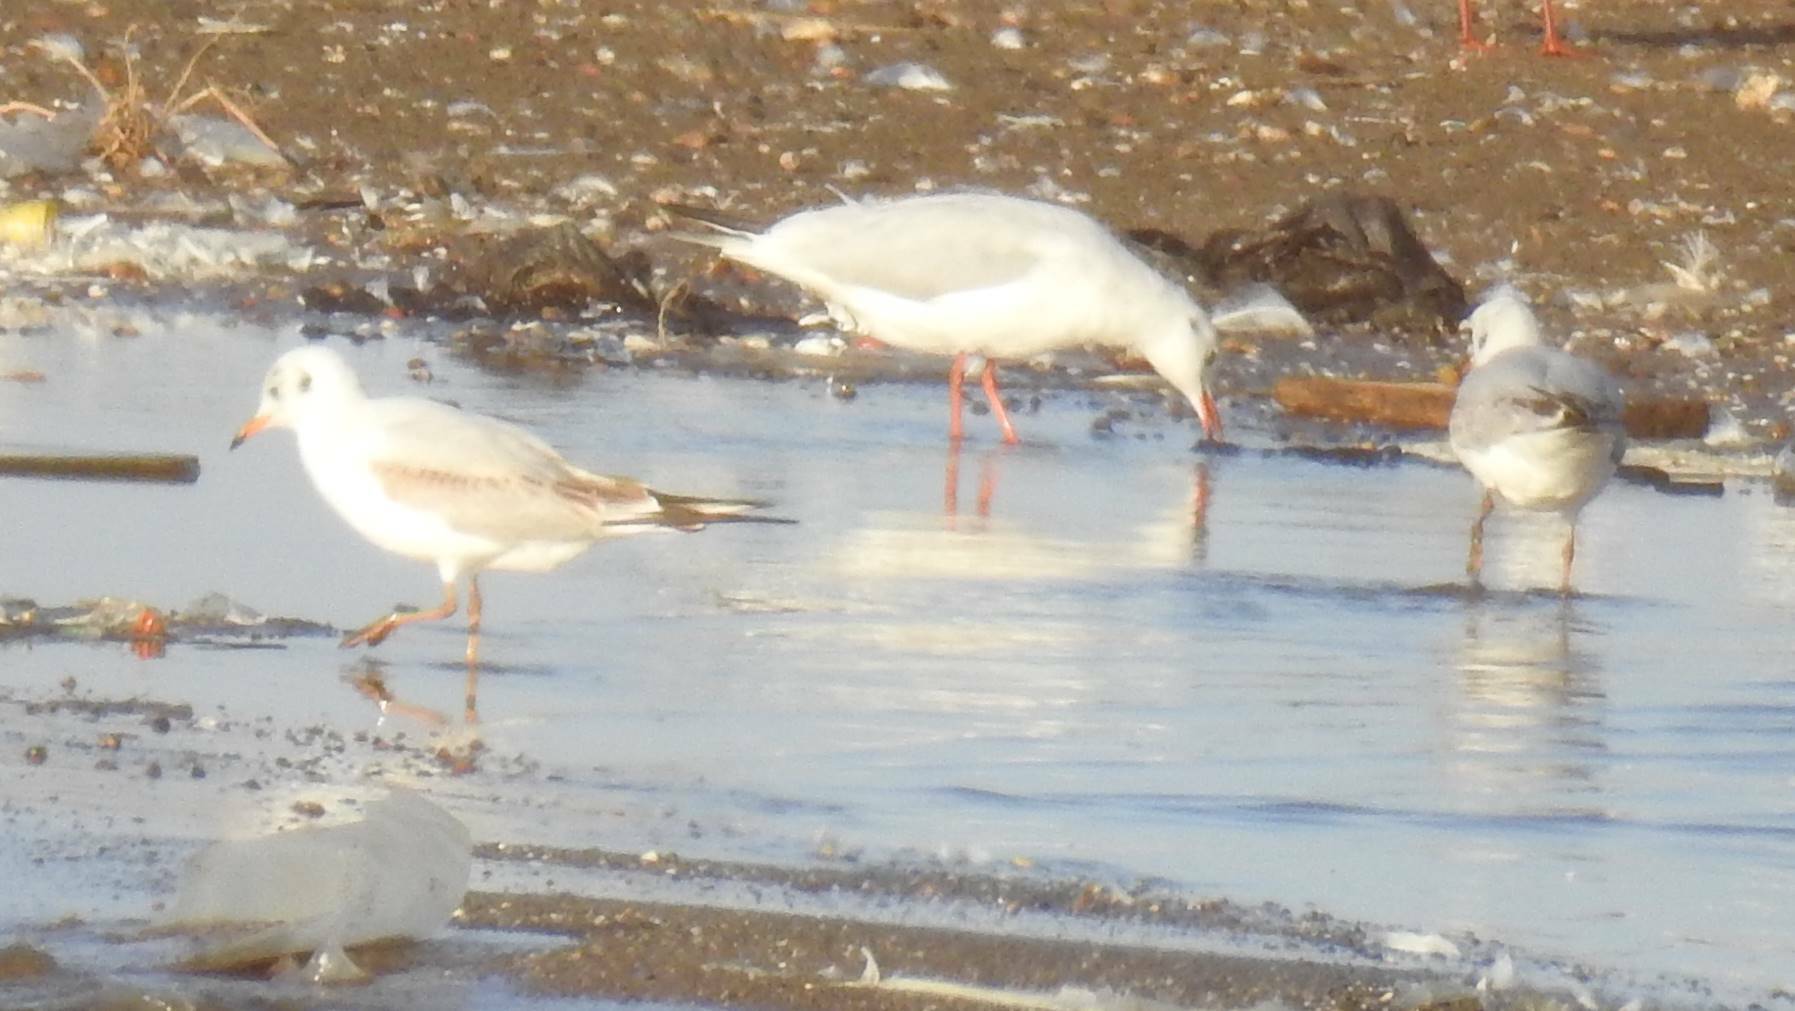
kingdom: Animalia
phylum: Chordata
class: Aves
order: Charadriiformes
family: Laridae
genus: Chroicocephalus
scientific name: Chroicocephalus ridibundus
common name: Black-headed gull
